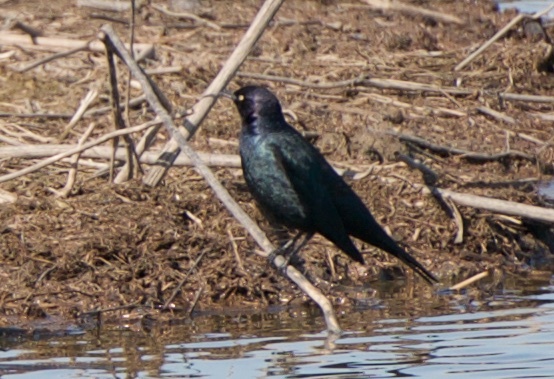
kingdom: Animalia
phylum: Chordata
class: Aves
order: Passeriformes
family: Icteridae
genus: Euphagus
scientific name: Euphagus cyanocephalus
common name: Brewer's blackbird
